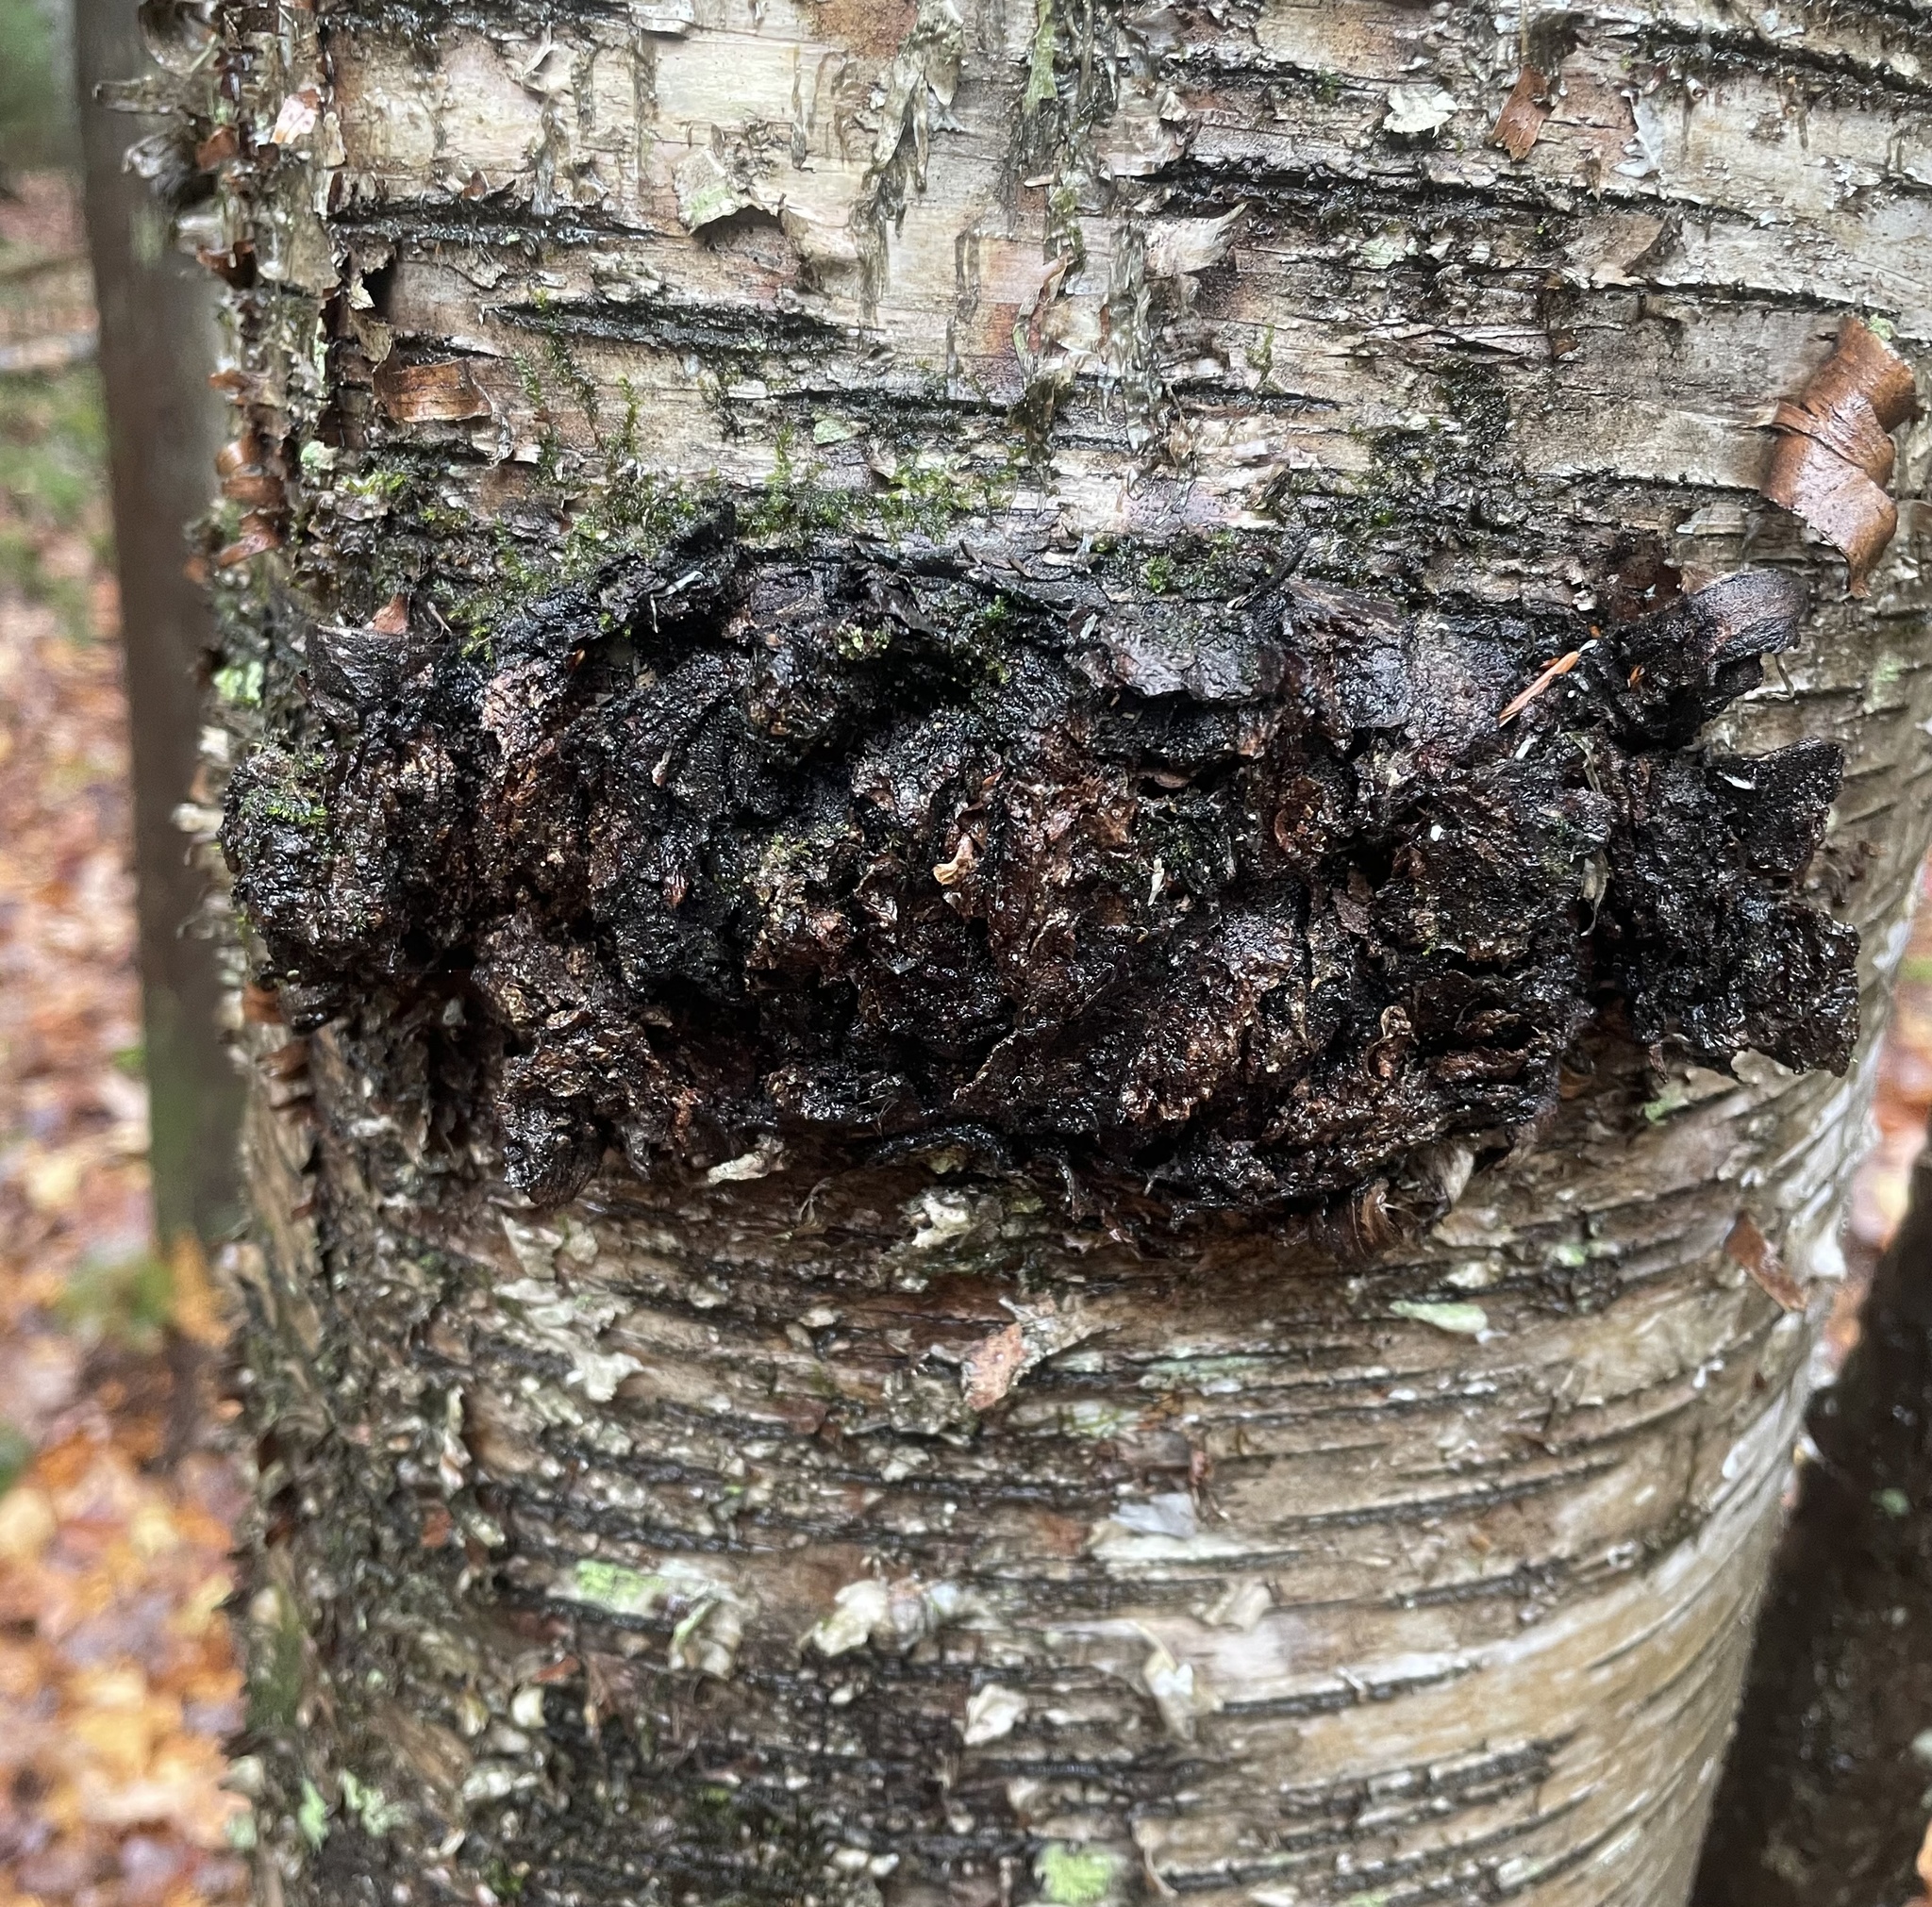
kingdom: Fungi
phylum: Basidiomycota
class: Agaricomycetes
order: Hymenochaetales
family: Hymenochaetaceae
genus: Inonotus
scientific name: Inonotus obliquus
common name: Chaga
